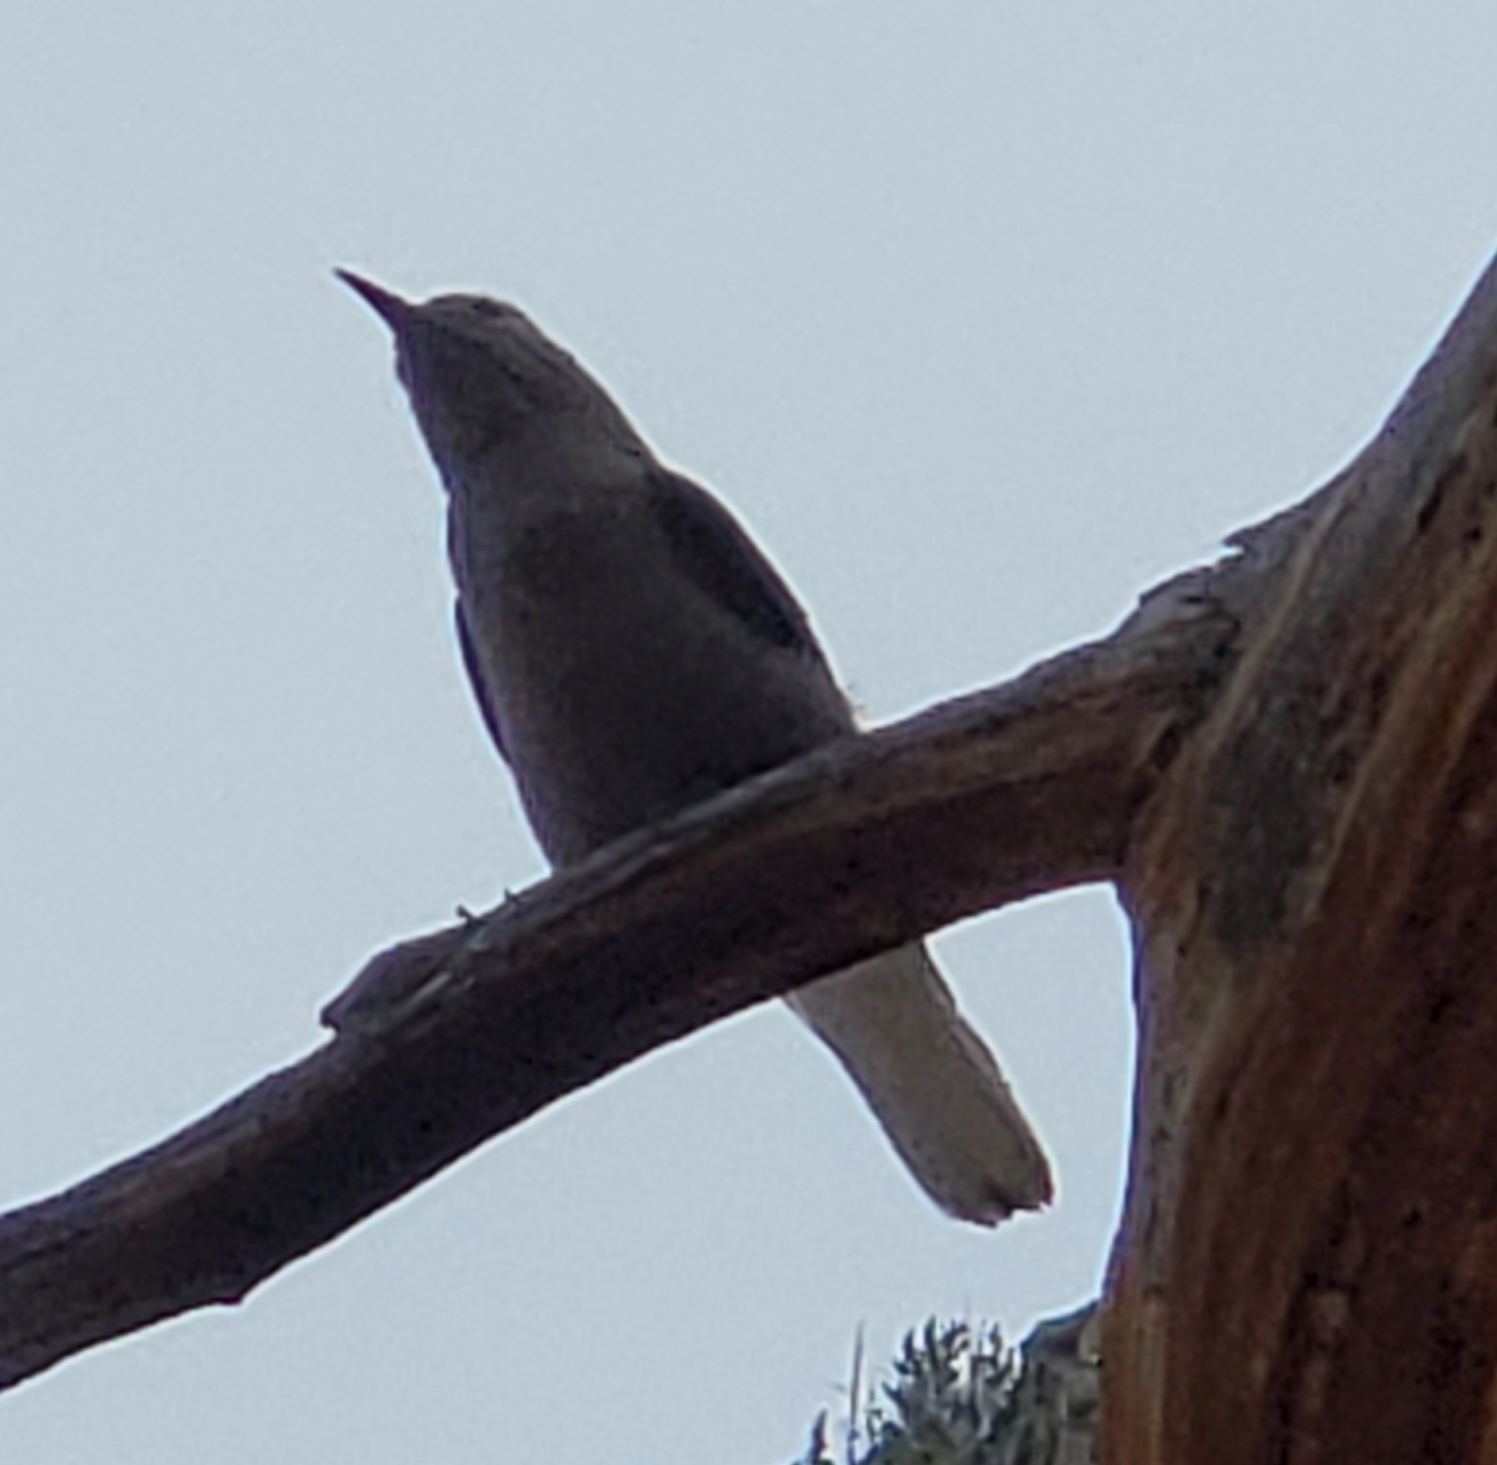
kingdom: Animalia
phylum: Chordata
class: Aves
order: Passeriformes
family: Corvidae
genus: Nucifraga
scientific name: Nucifraga columbiana
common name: Clark's nutcracker
